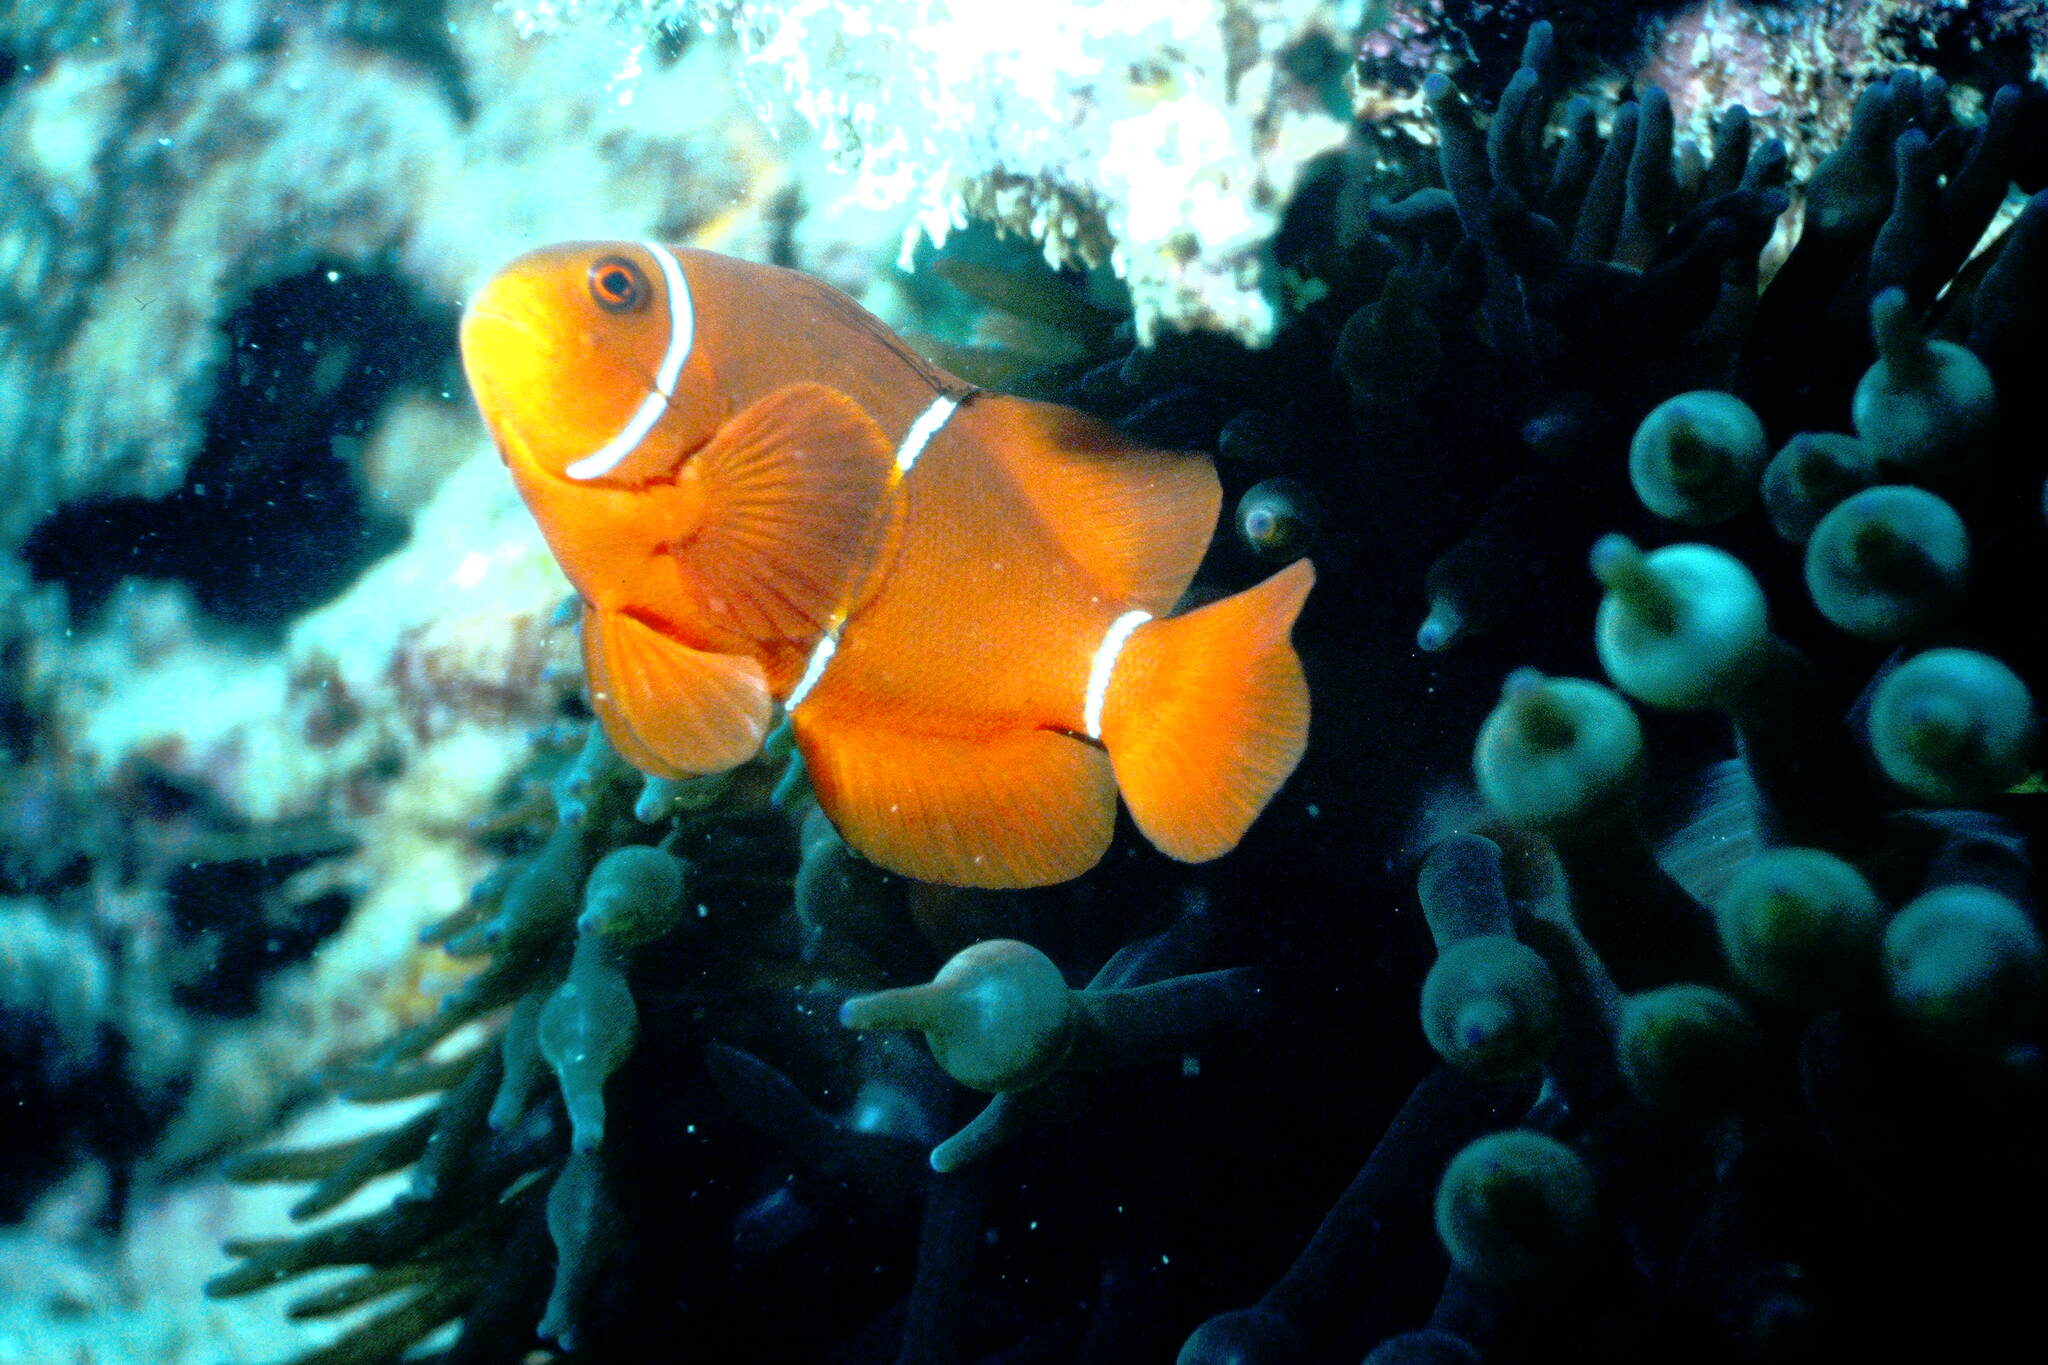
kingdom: Animalia
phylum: Chordata
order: Perciformes
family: Pomacentridae
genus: Premnas
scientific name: Premnas biaculeatus
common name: Spinecheek anemonefish
